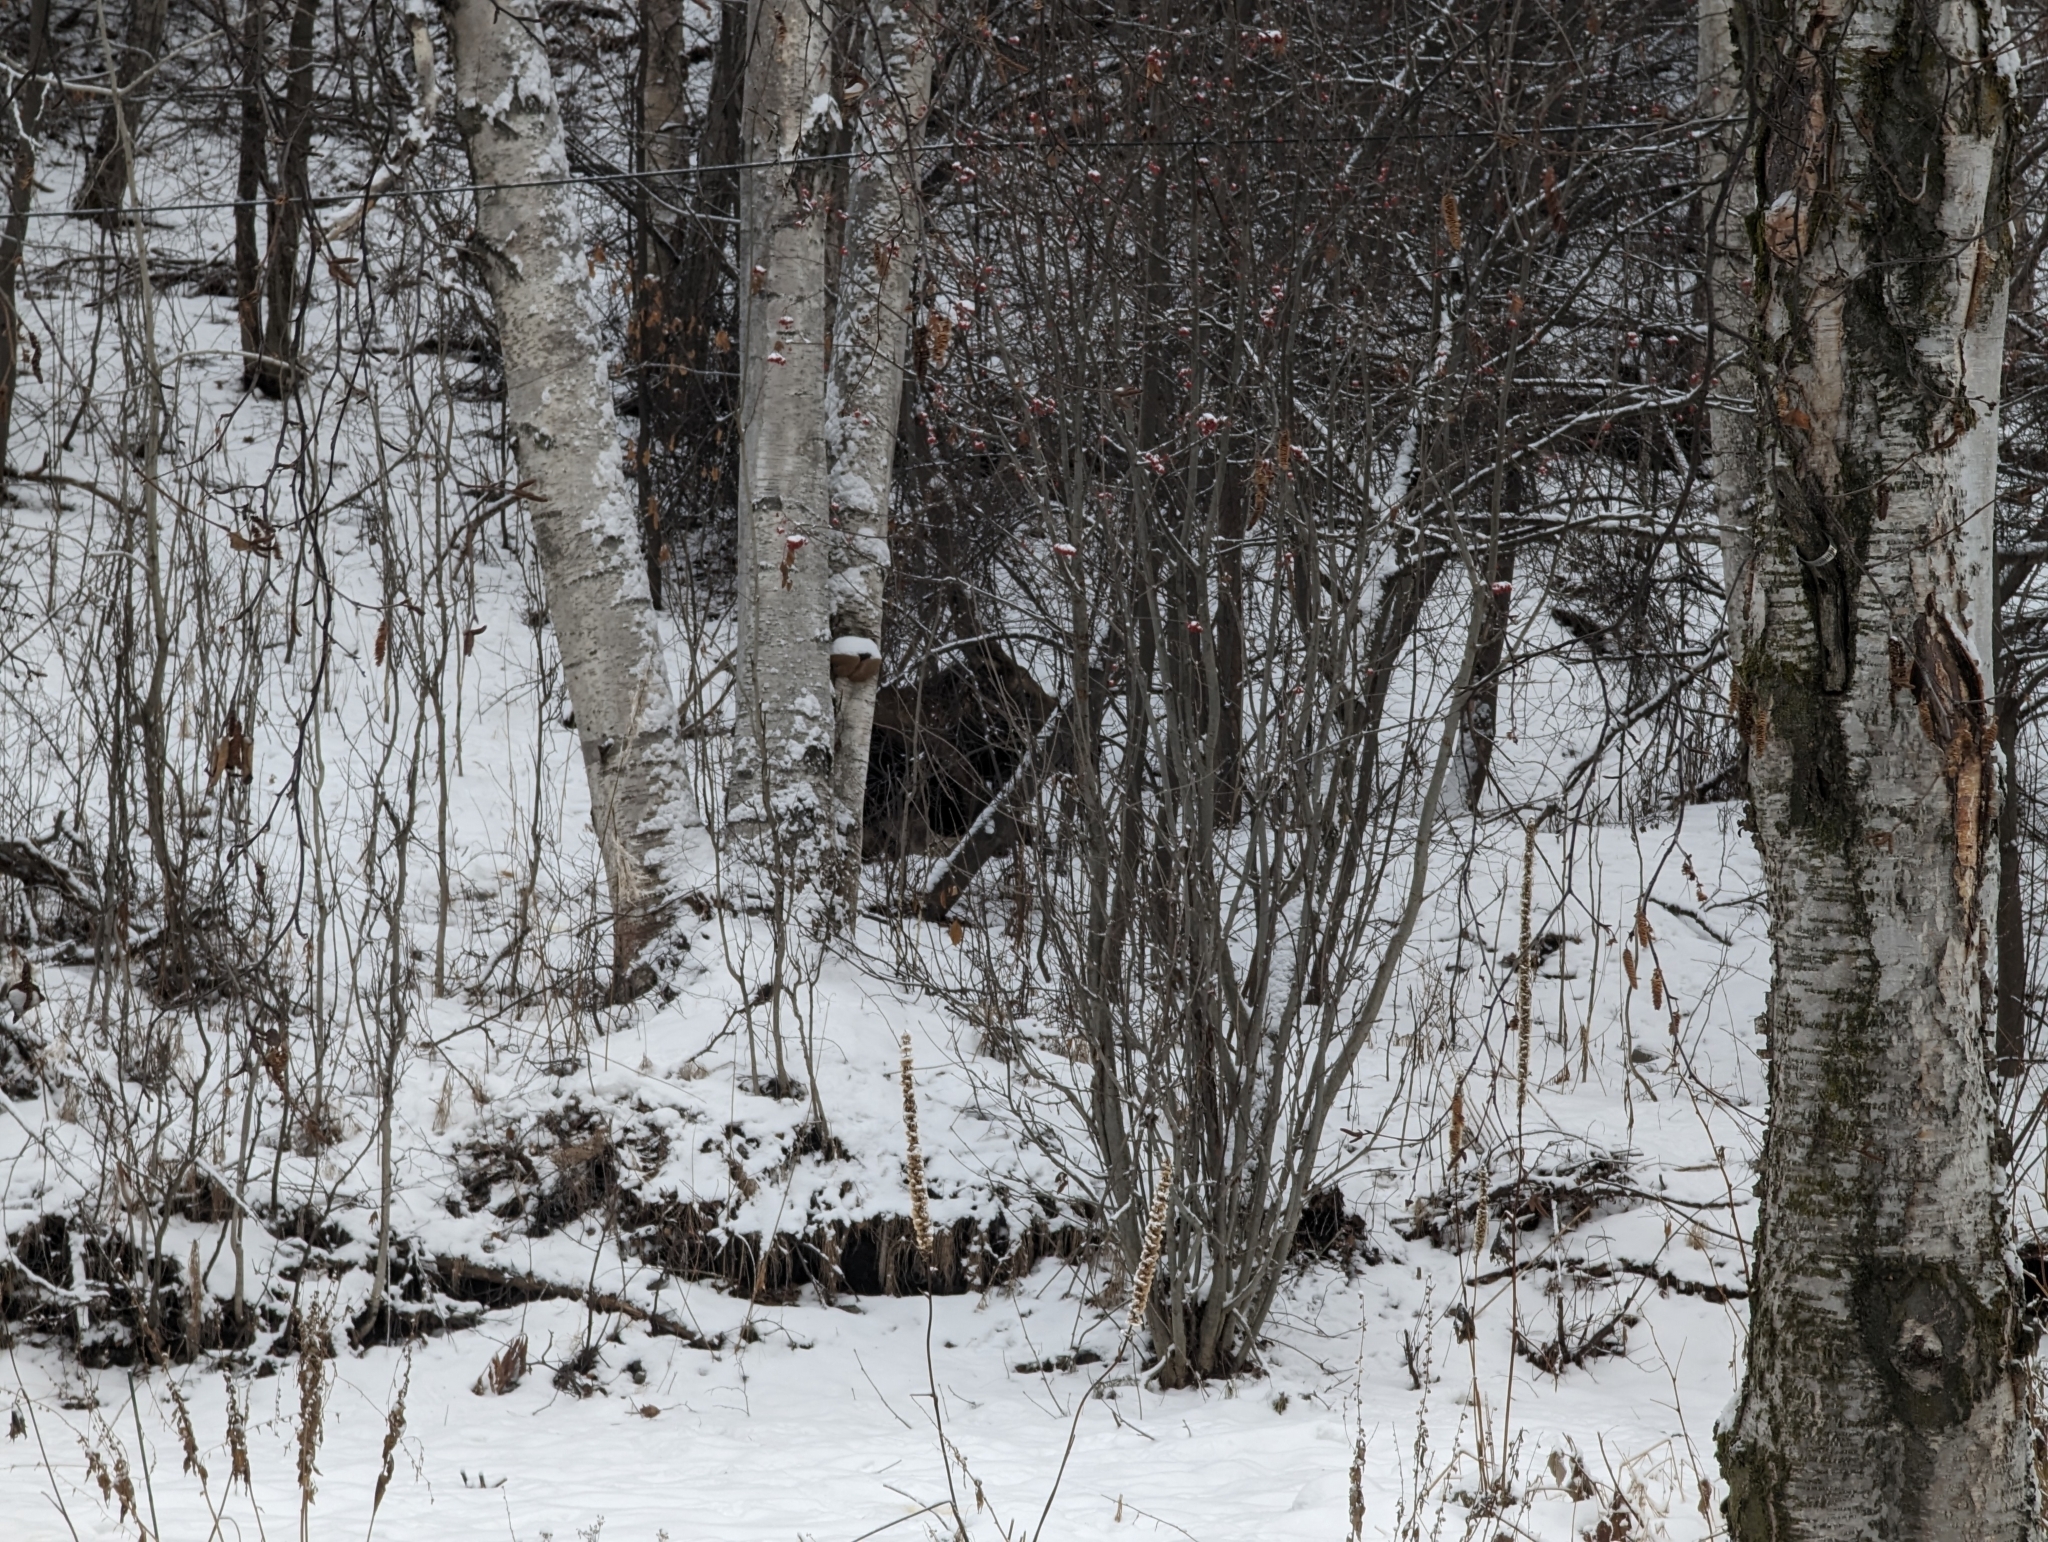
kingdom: Animalia
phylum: Chordata
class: Mammalia
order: Artiodactyla
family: Cervidae
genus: Alces
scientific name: Alces alces
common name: Moose
